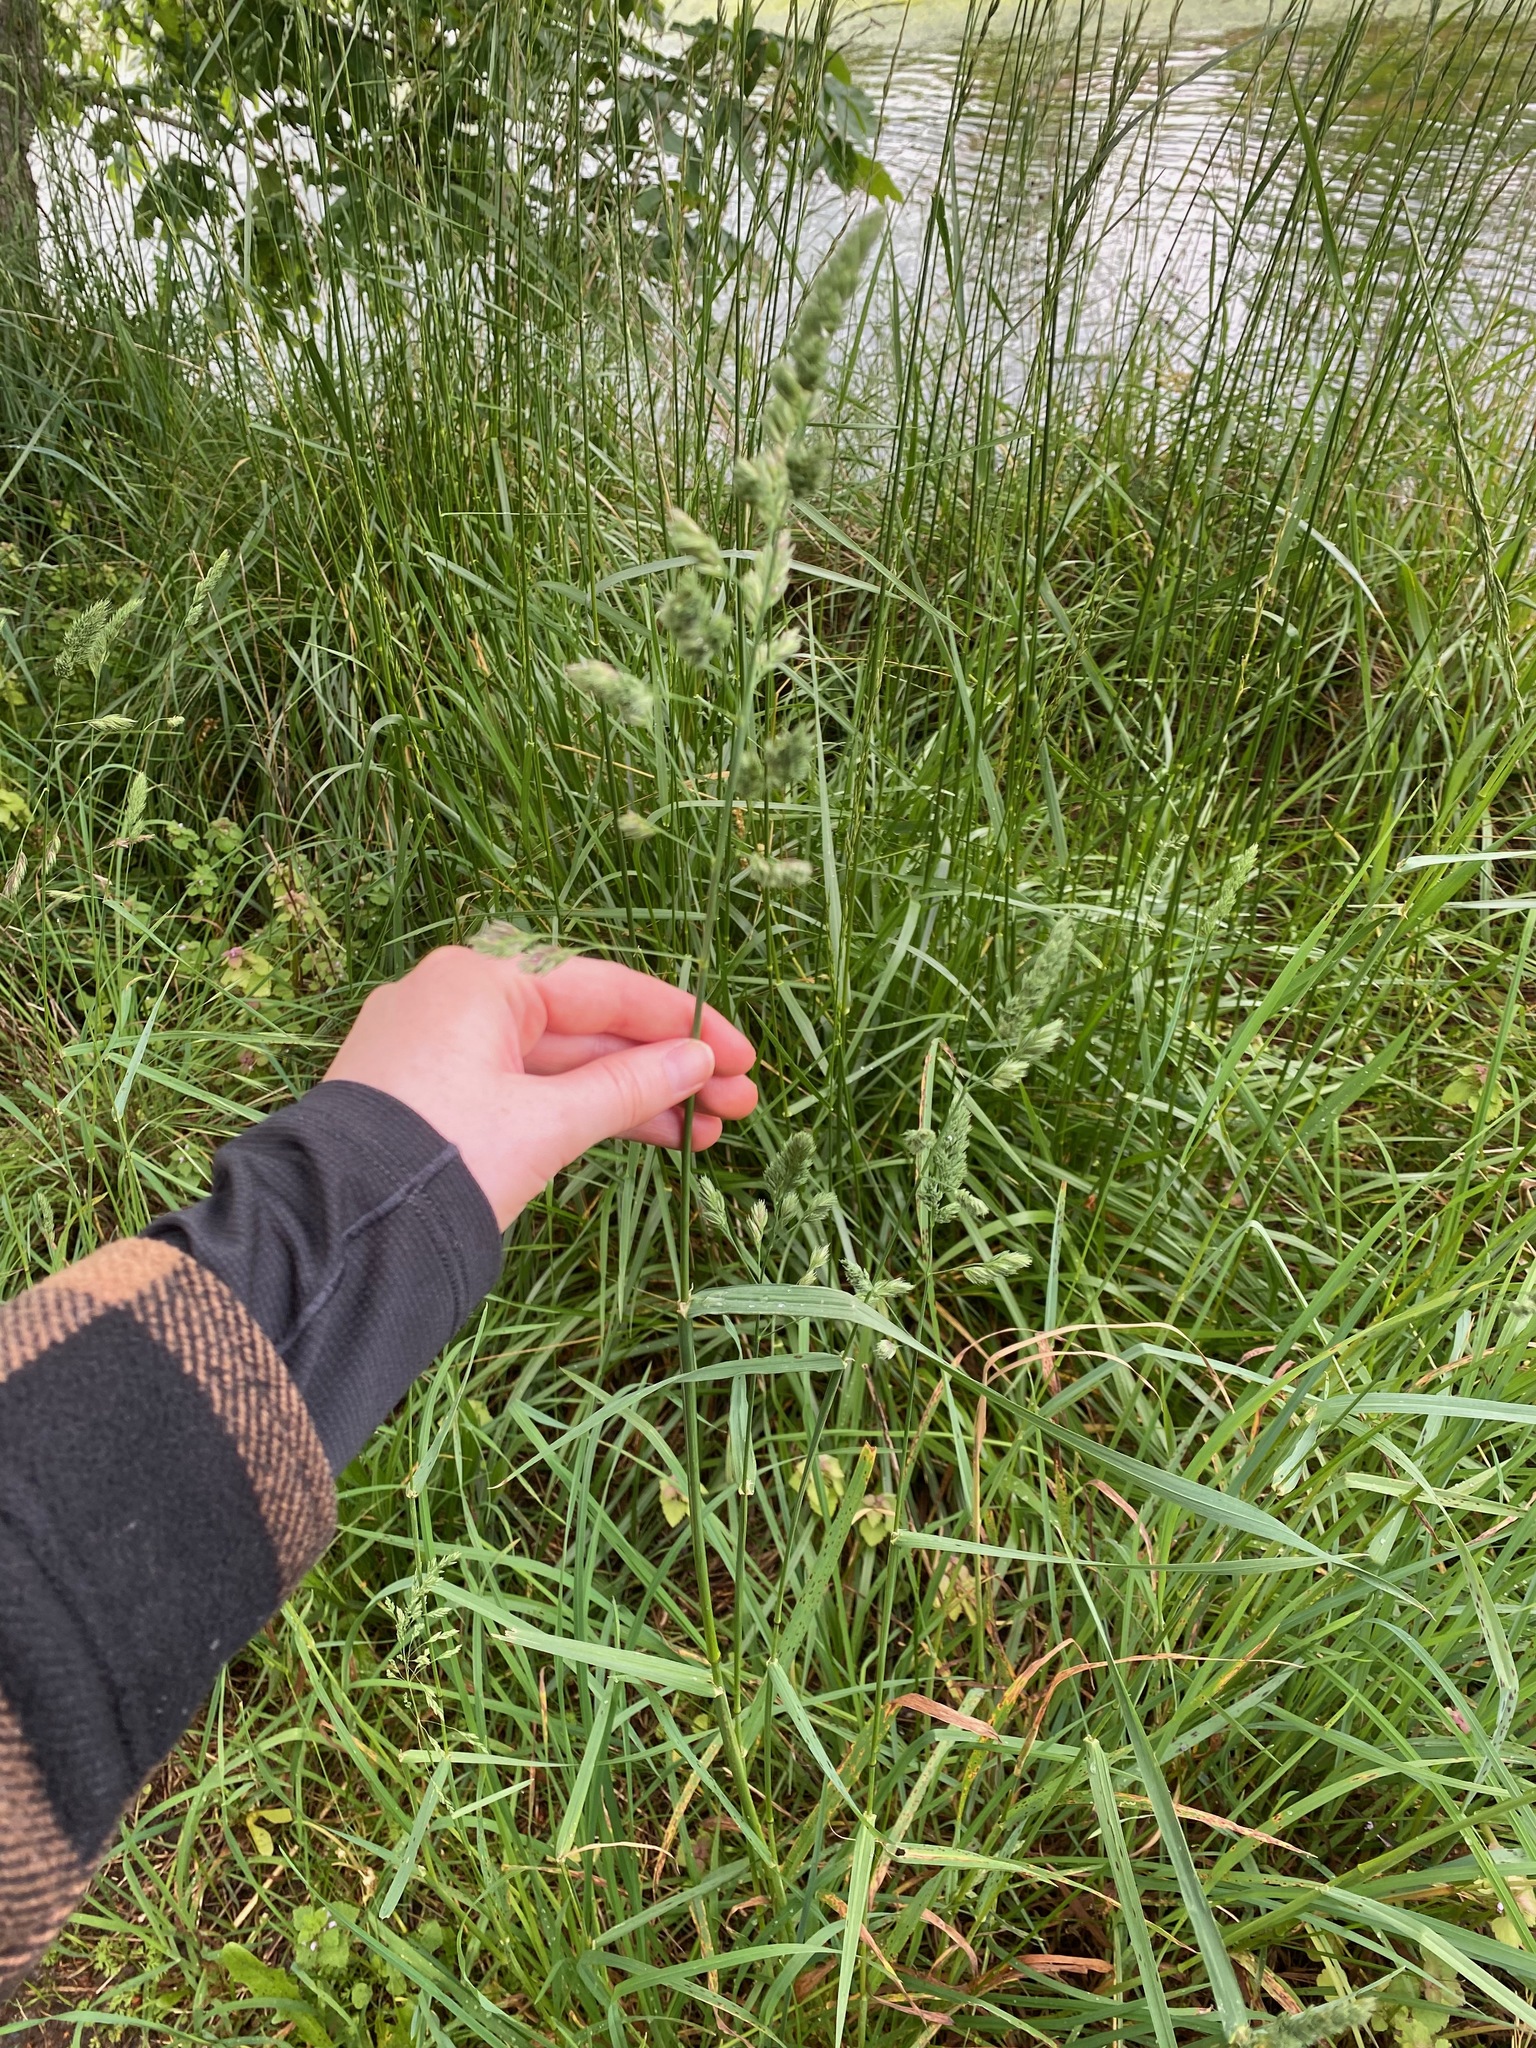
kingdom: Plantae
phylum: Tracheophyta
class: Liliopsida
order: Poales
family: Poaceae
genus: Dactylis
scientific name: Dactylis glomerata
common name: Orchardgrass
